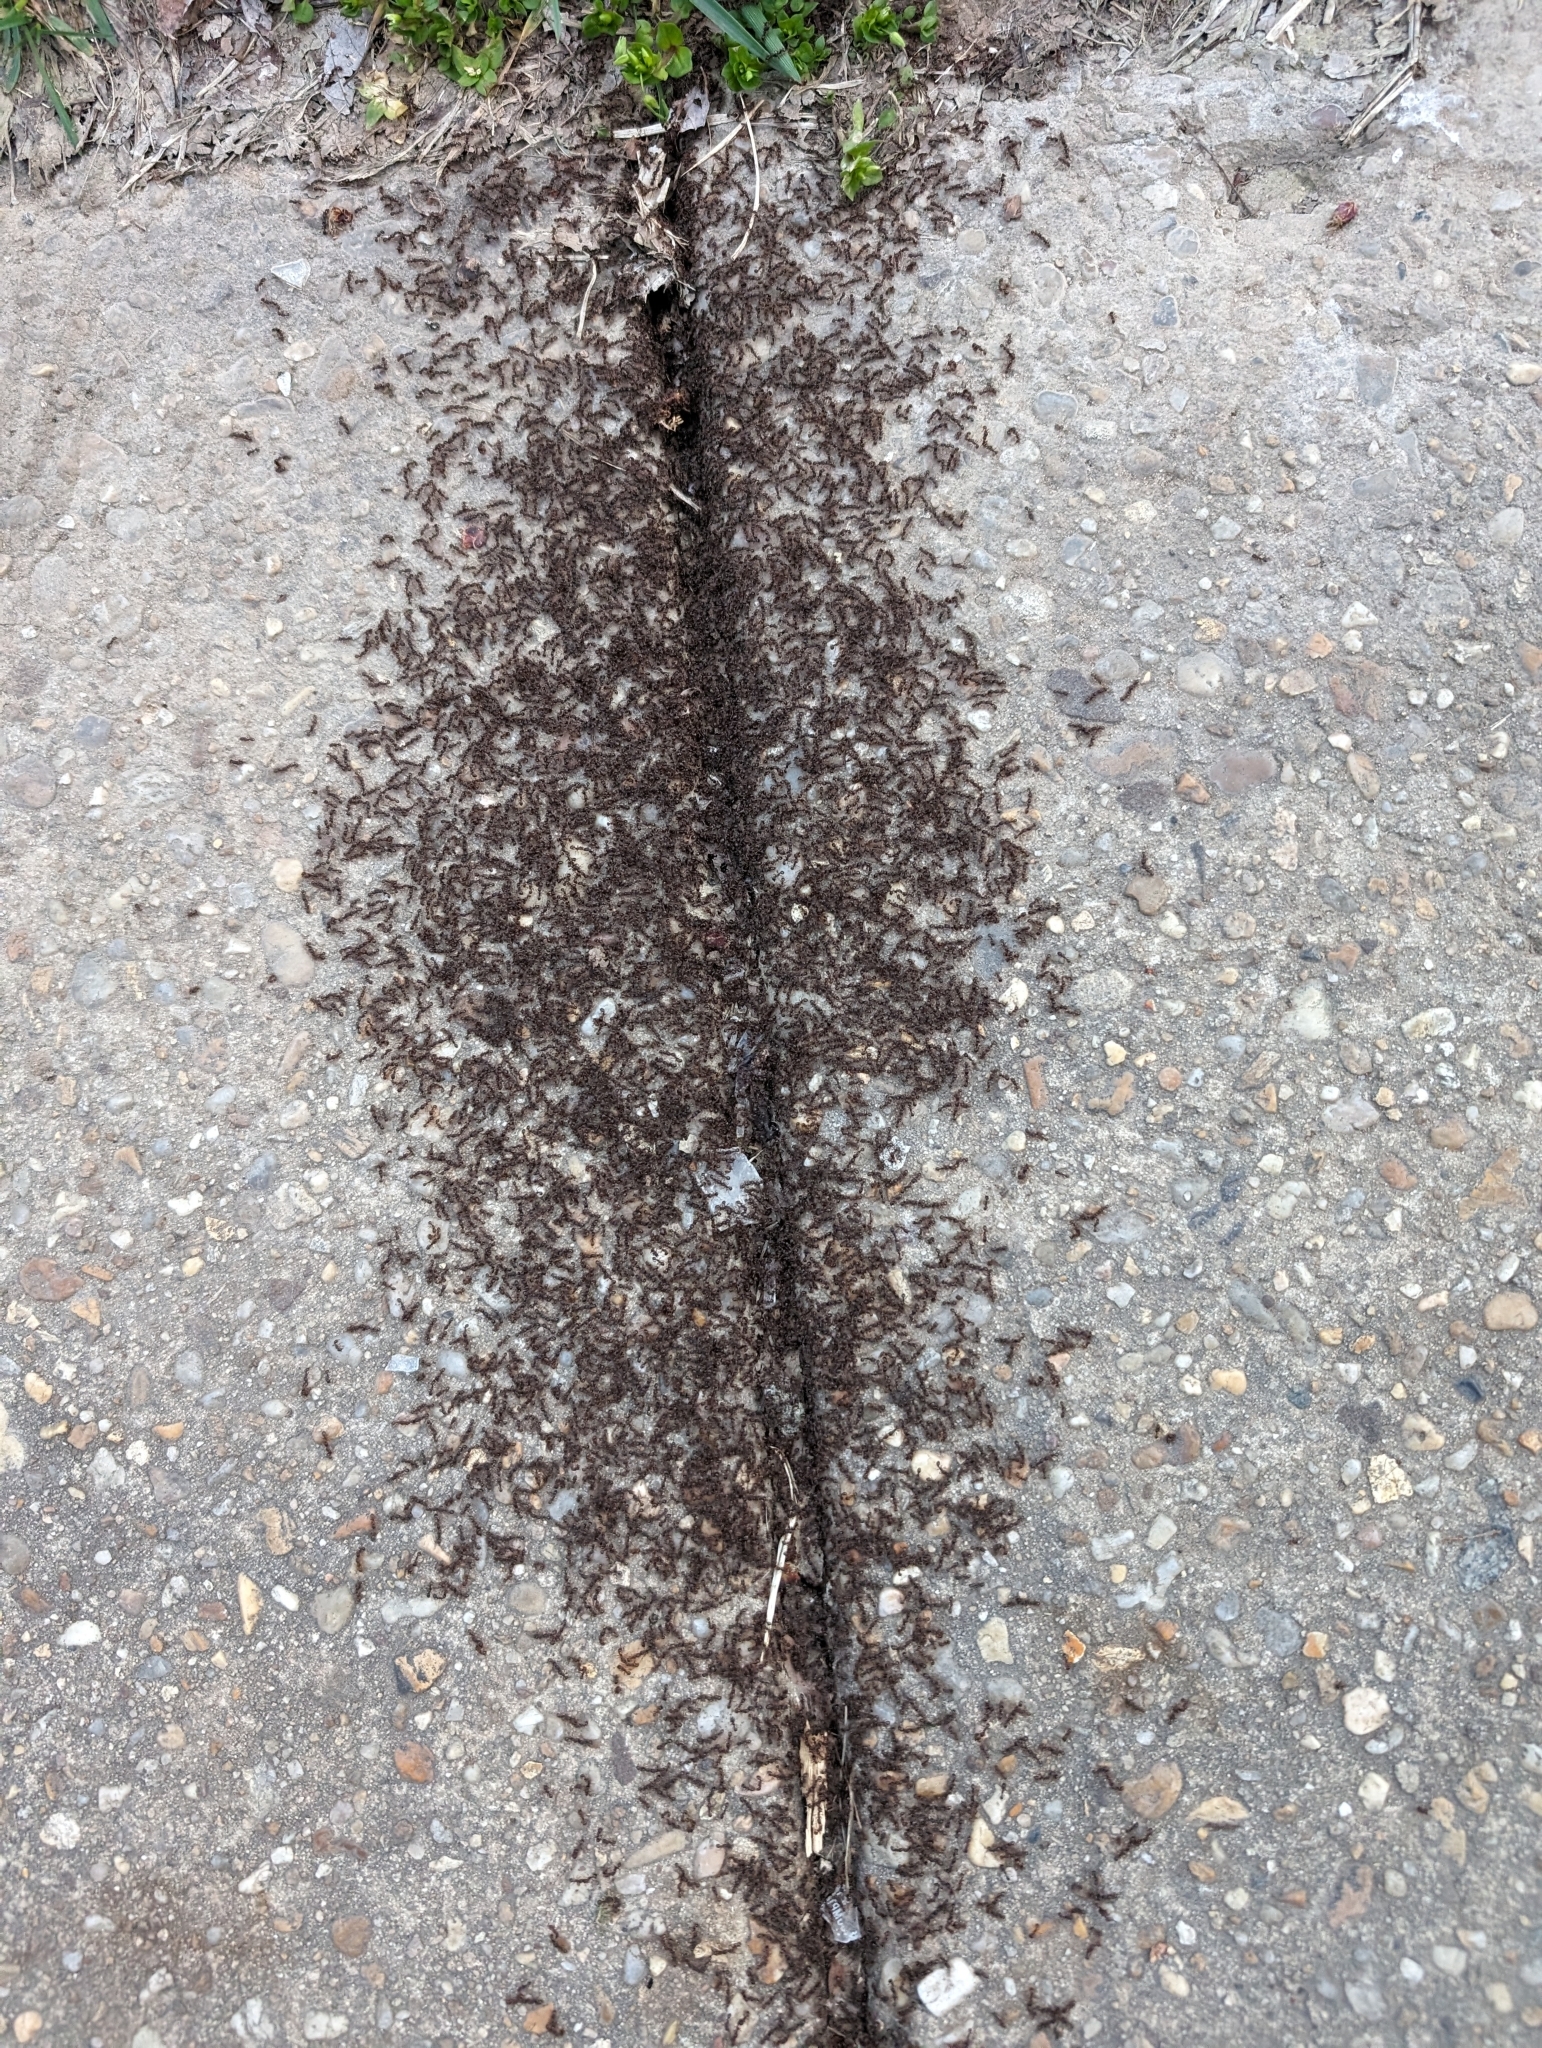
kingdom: Animalia
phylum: Arthropoda
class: Insecta
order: Hymenoptera
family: Formicidae
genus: Tetramorium
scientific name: Tetramorium immigrans
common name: Pavement ant
